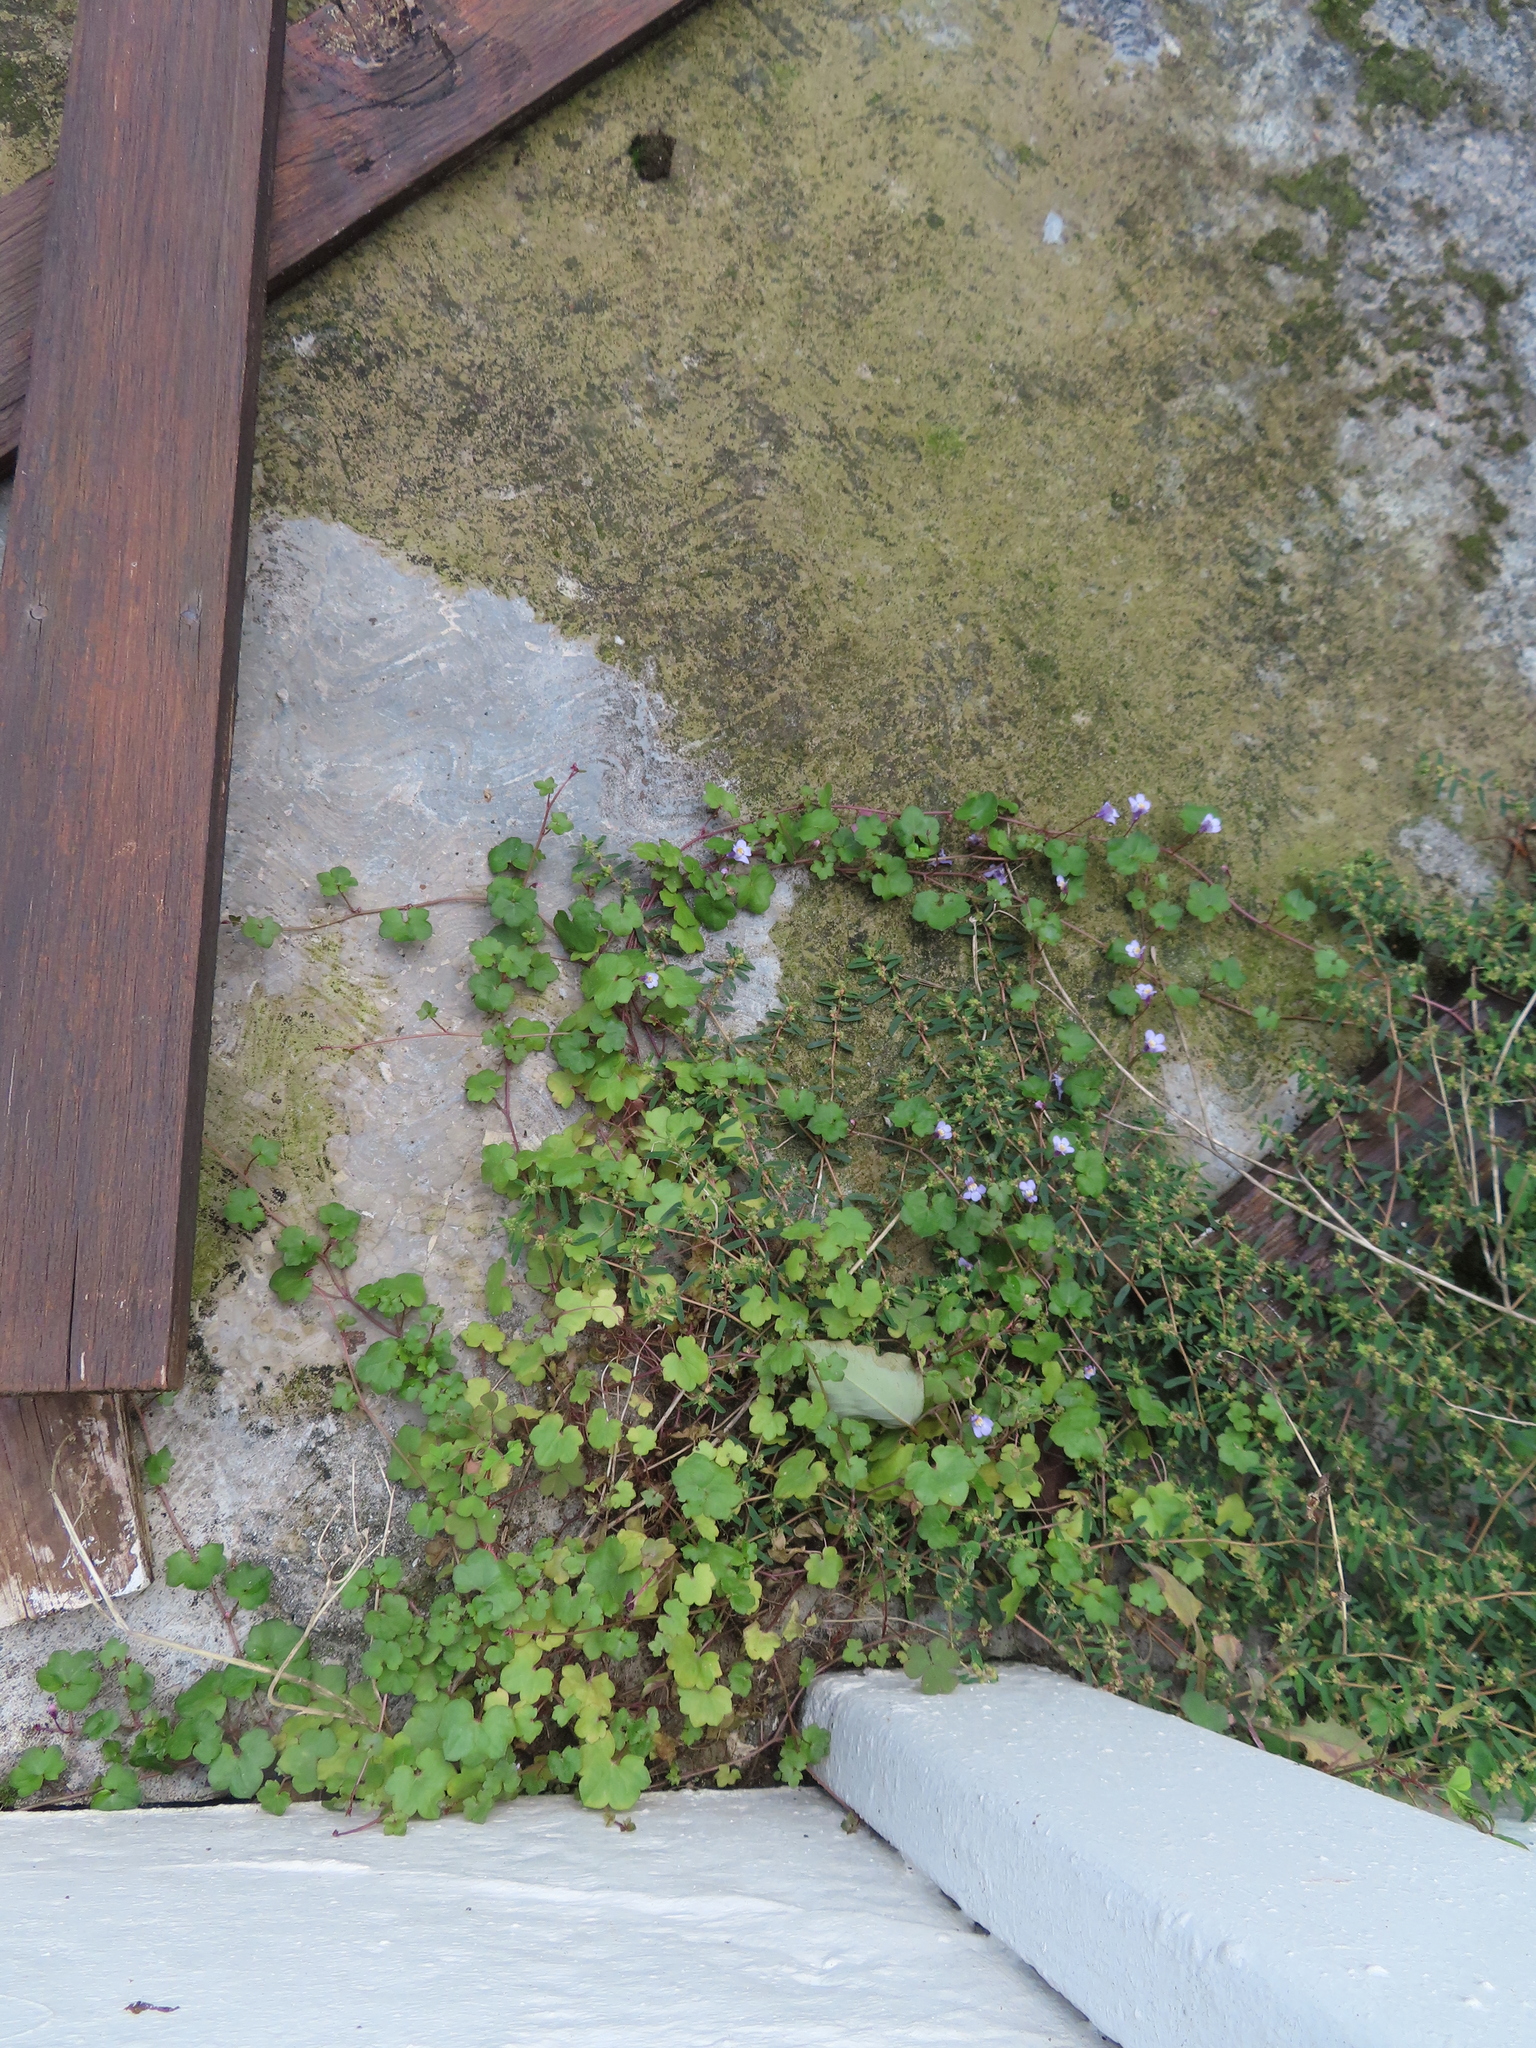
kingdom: Plantae
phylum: Tracheophyta
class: Magnoliopsida
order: Lamiales
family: Plantaginaceae
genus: Cymbalaria
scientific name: Cymbalaria muralis
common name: Ivy-leaved toadflax
